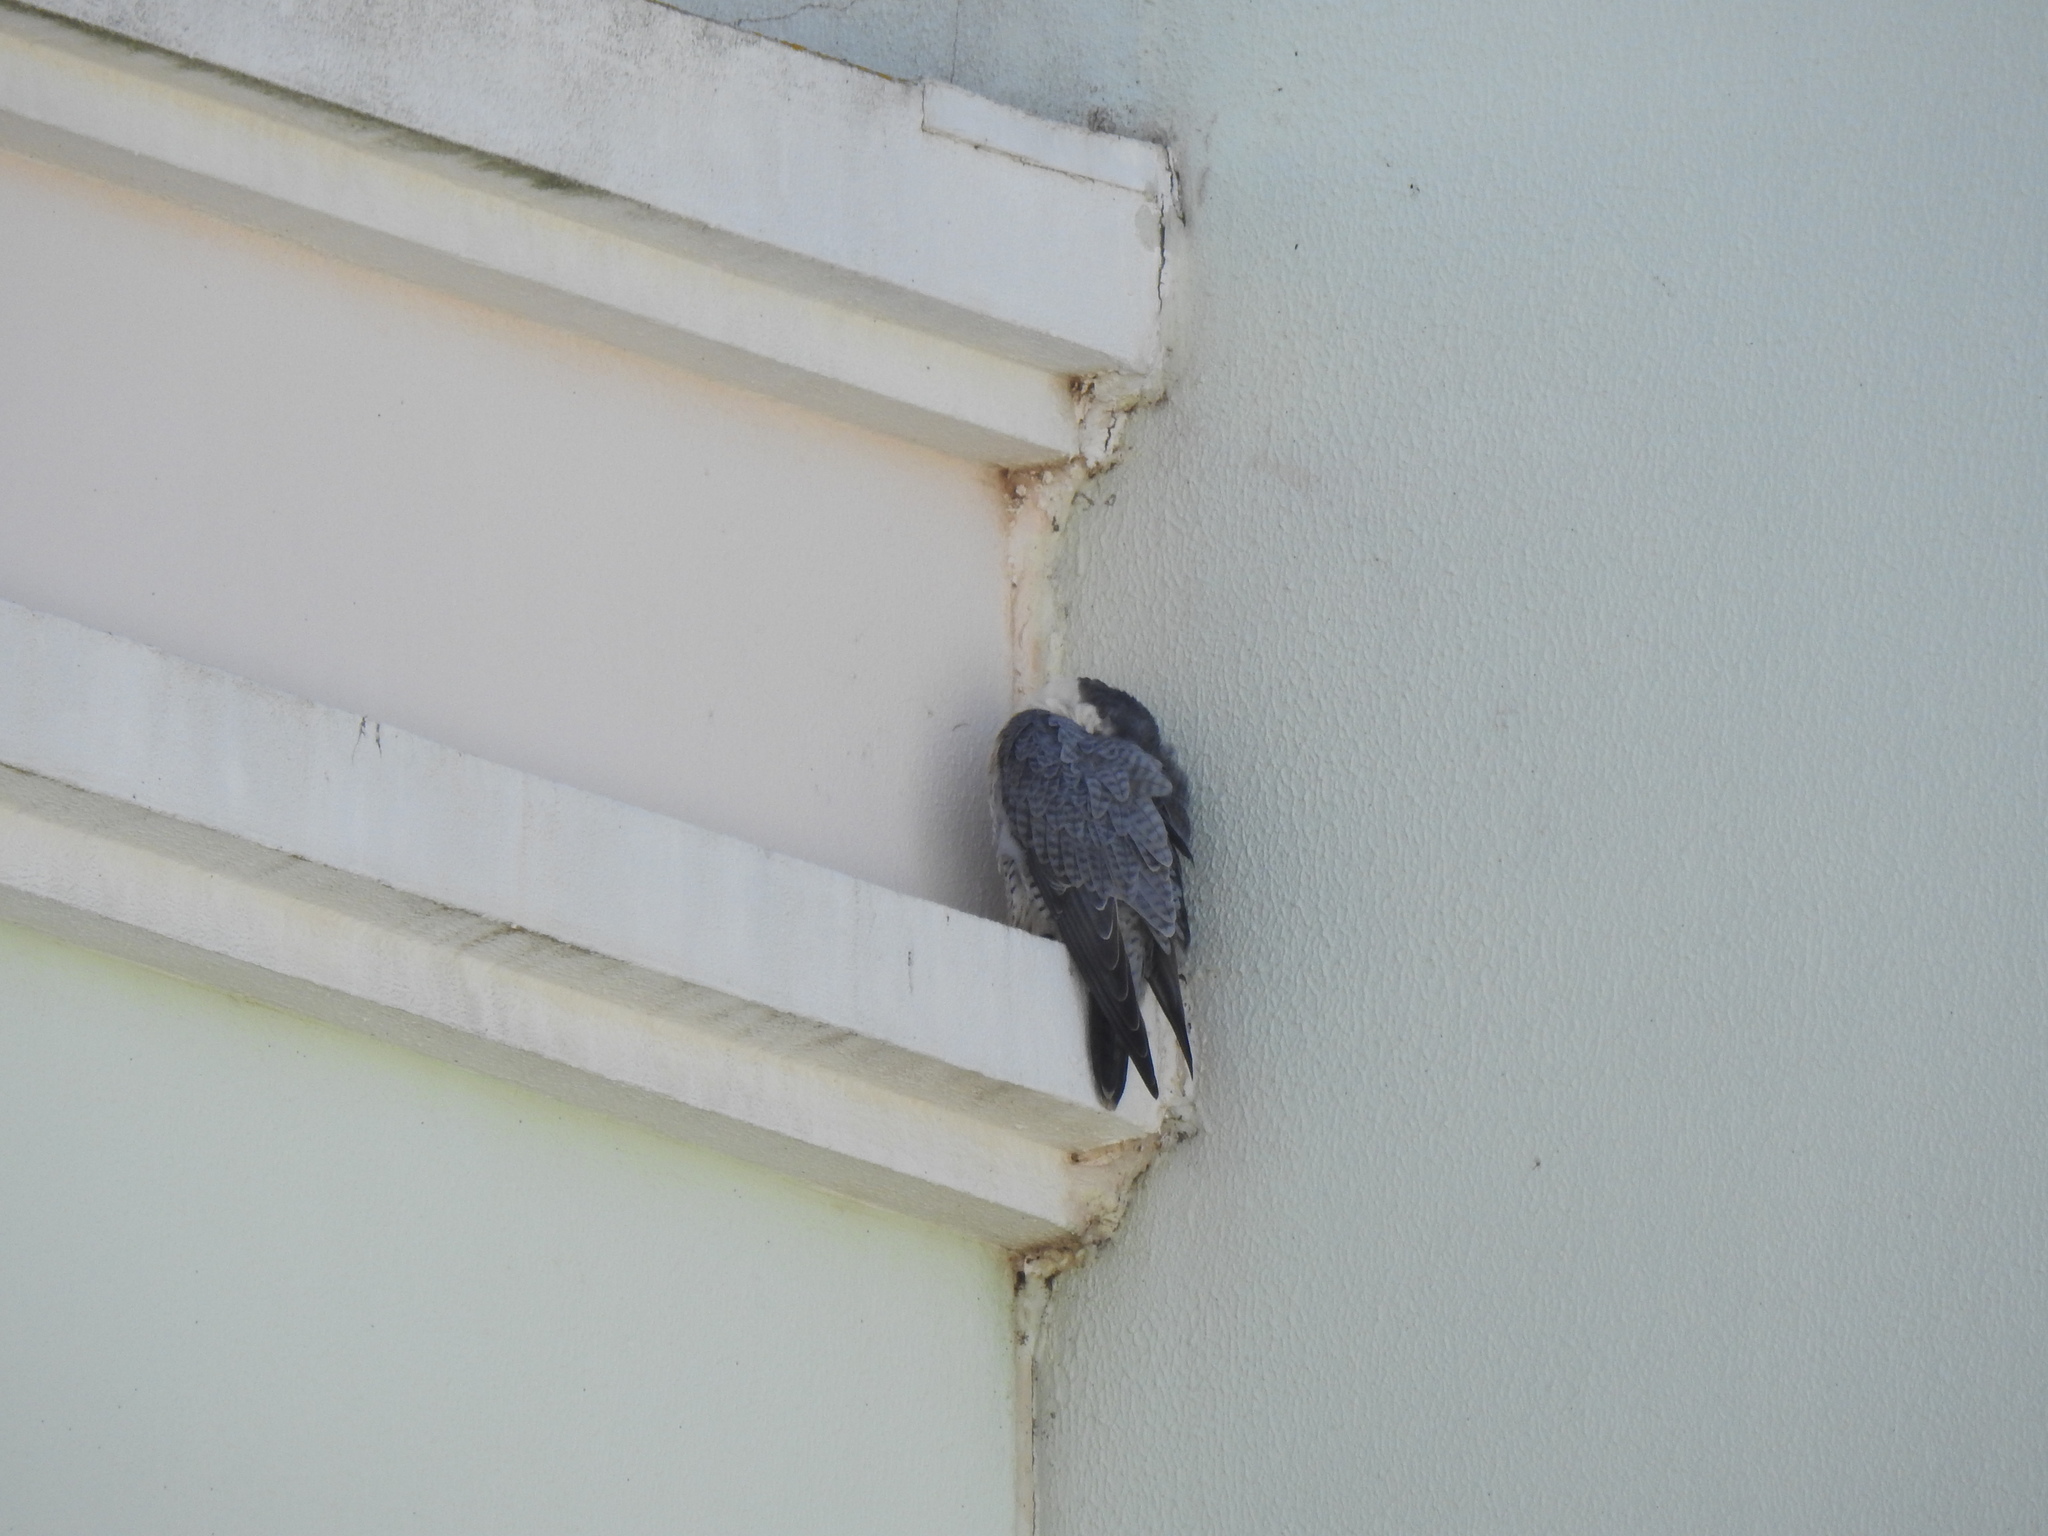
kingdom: Animalia
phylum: Chordata
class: Aves
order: Falconiformes
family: Falconidae
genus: Falco
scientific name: Falco peregrinus
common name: Peregrine falcon
